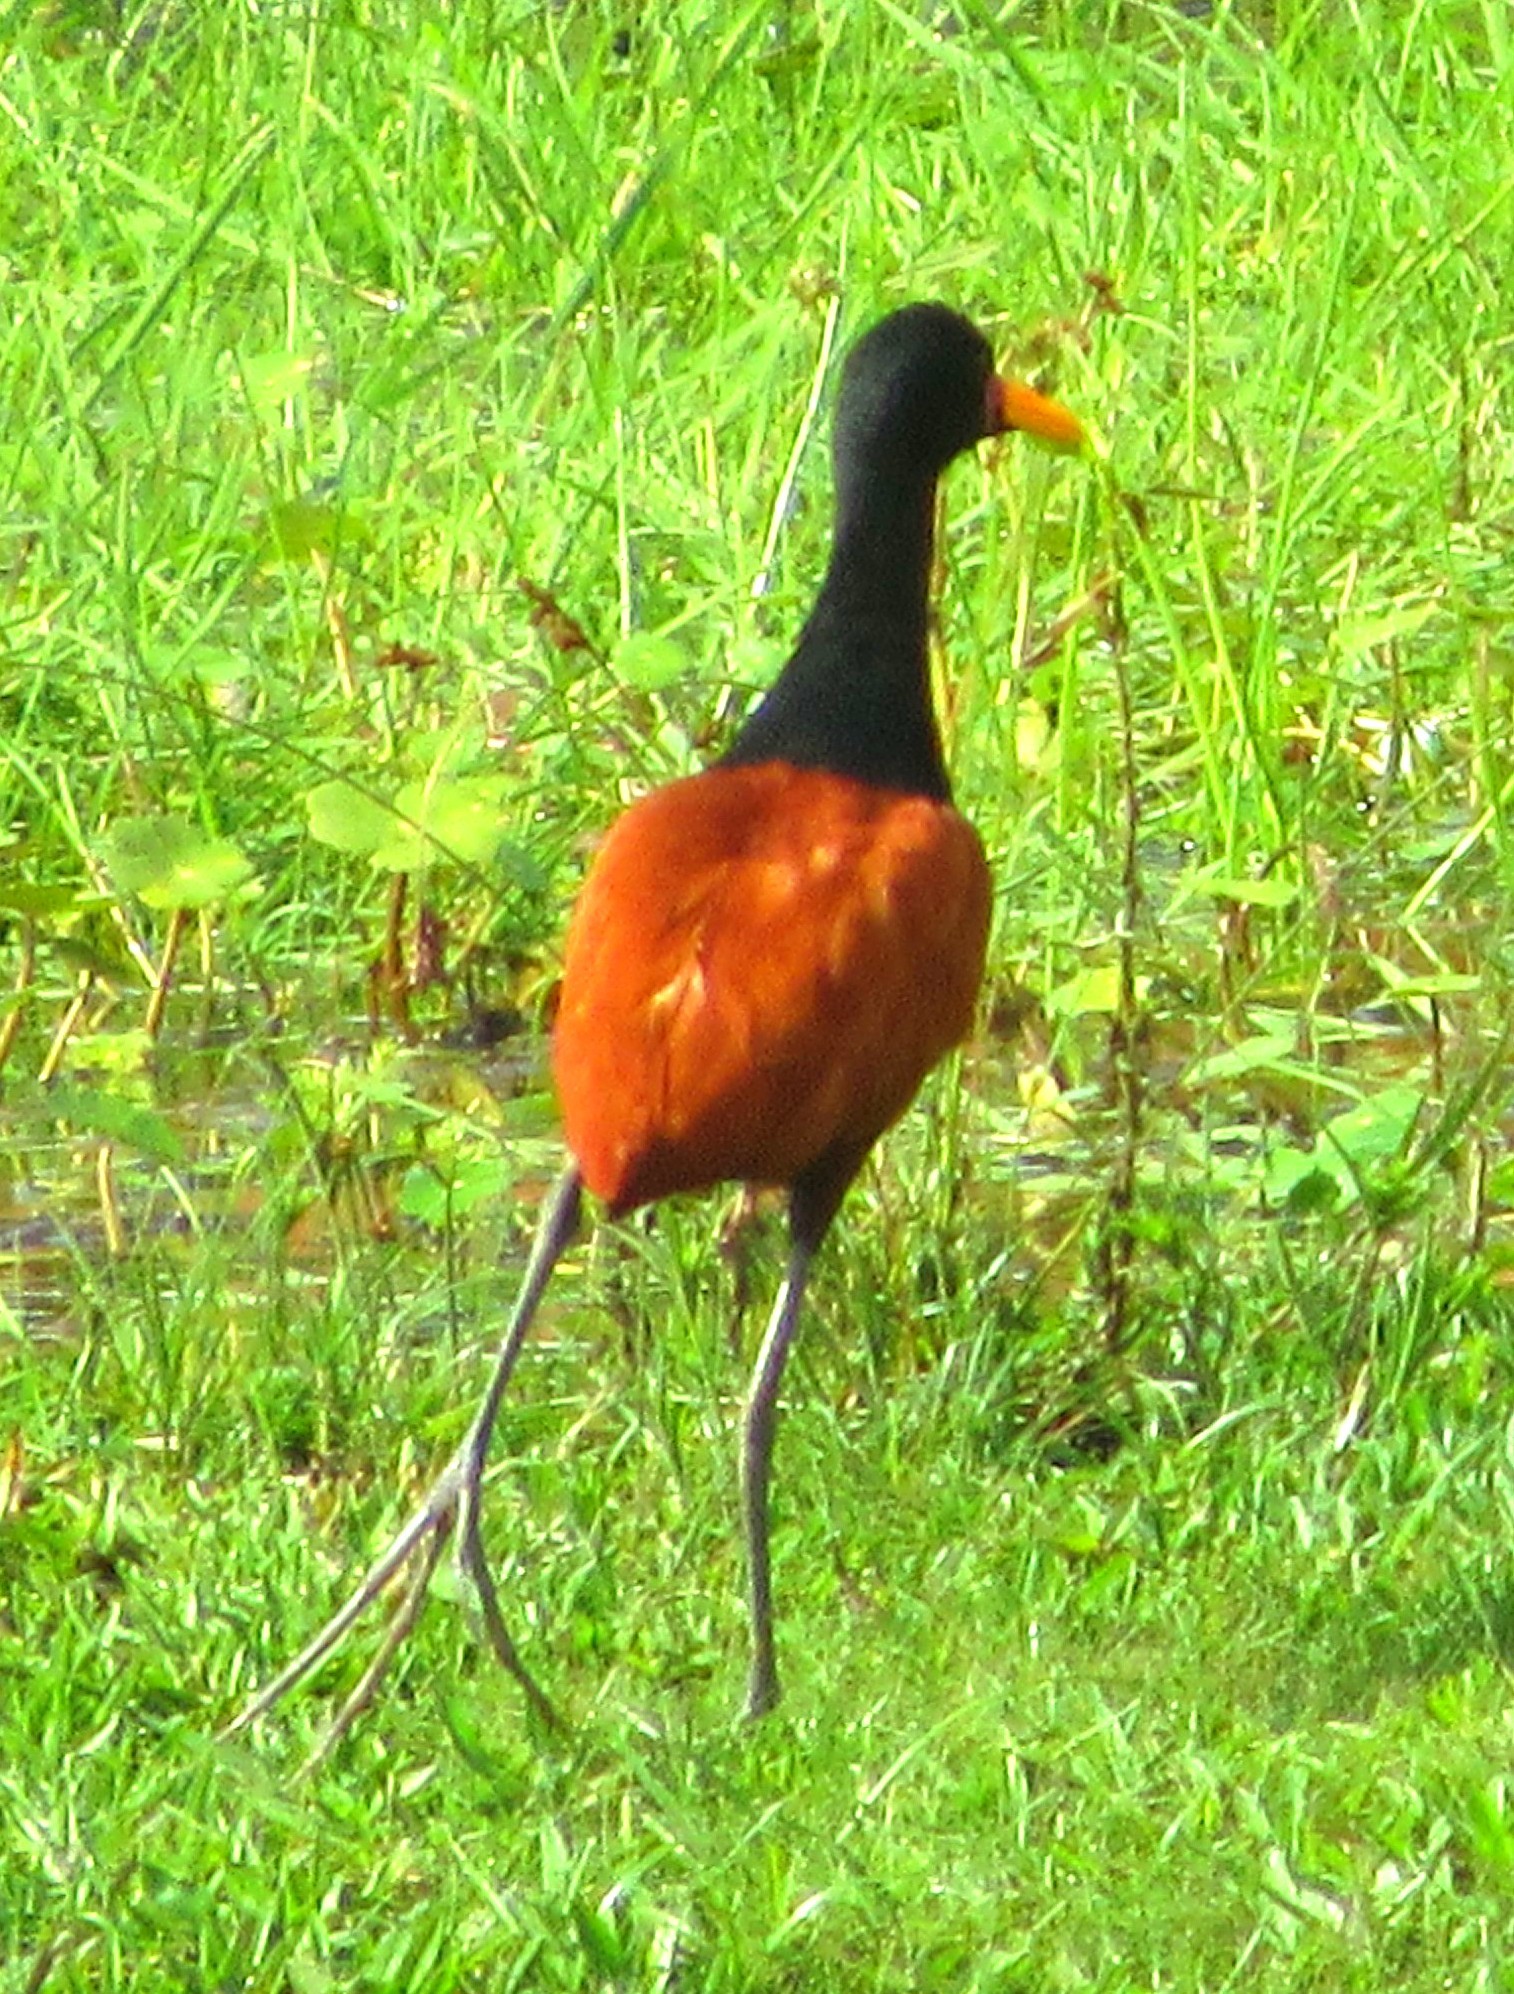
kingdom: Animalia
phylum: Chordata
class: Aves
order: Charadriiformes
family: Jacanidae
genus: Jacana
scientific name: Jacana jacana
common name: Wattled jacana
